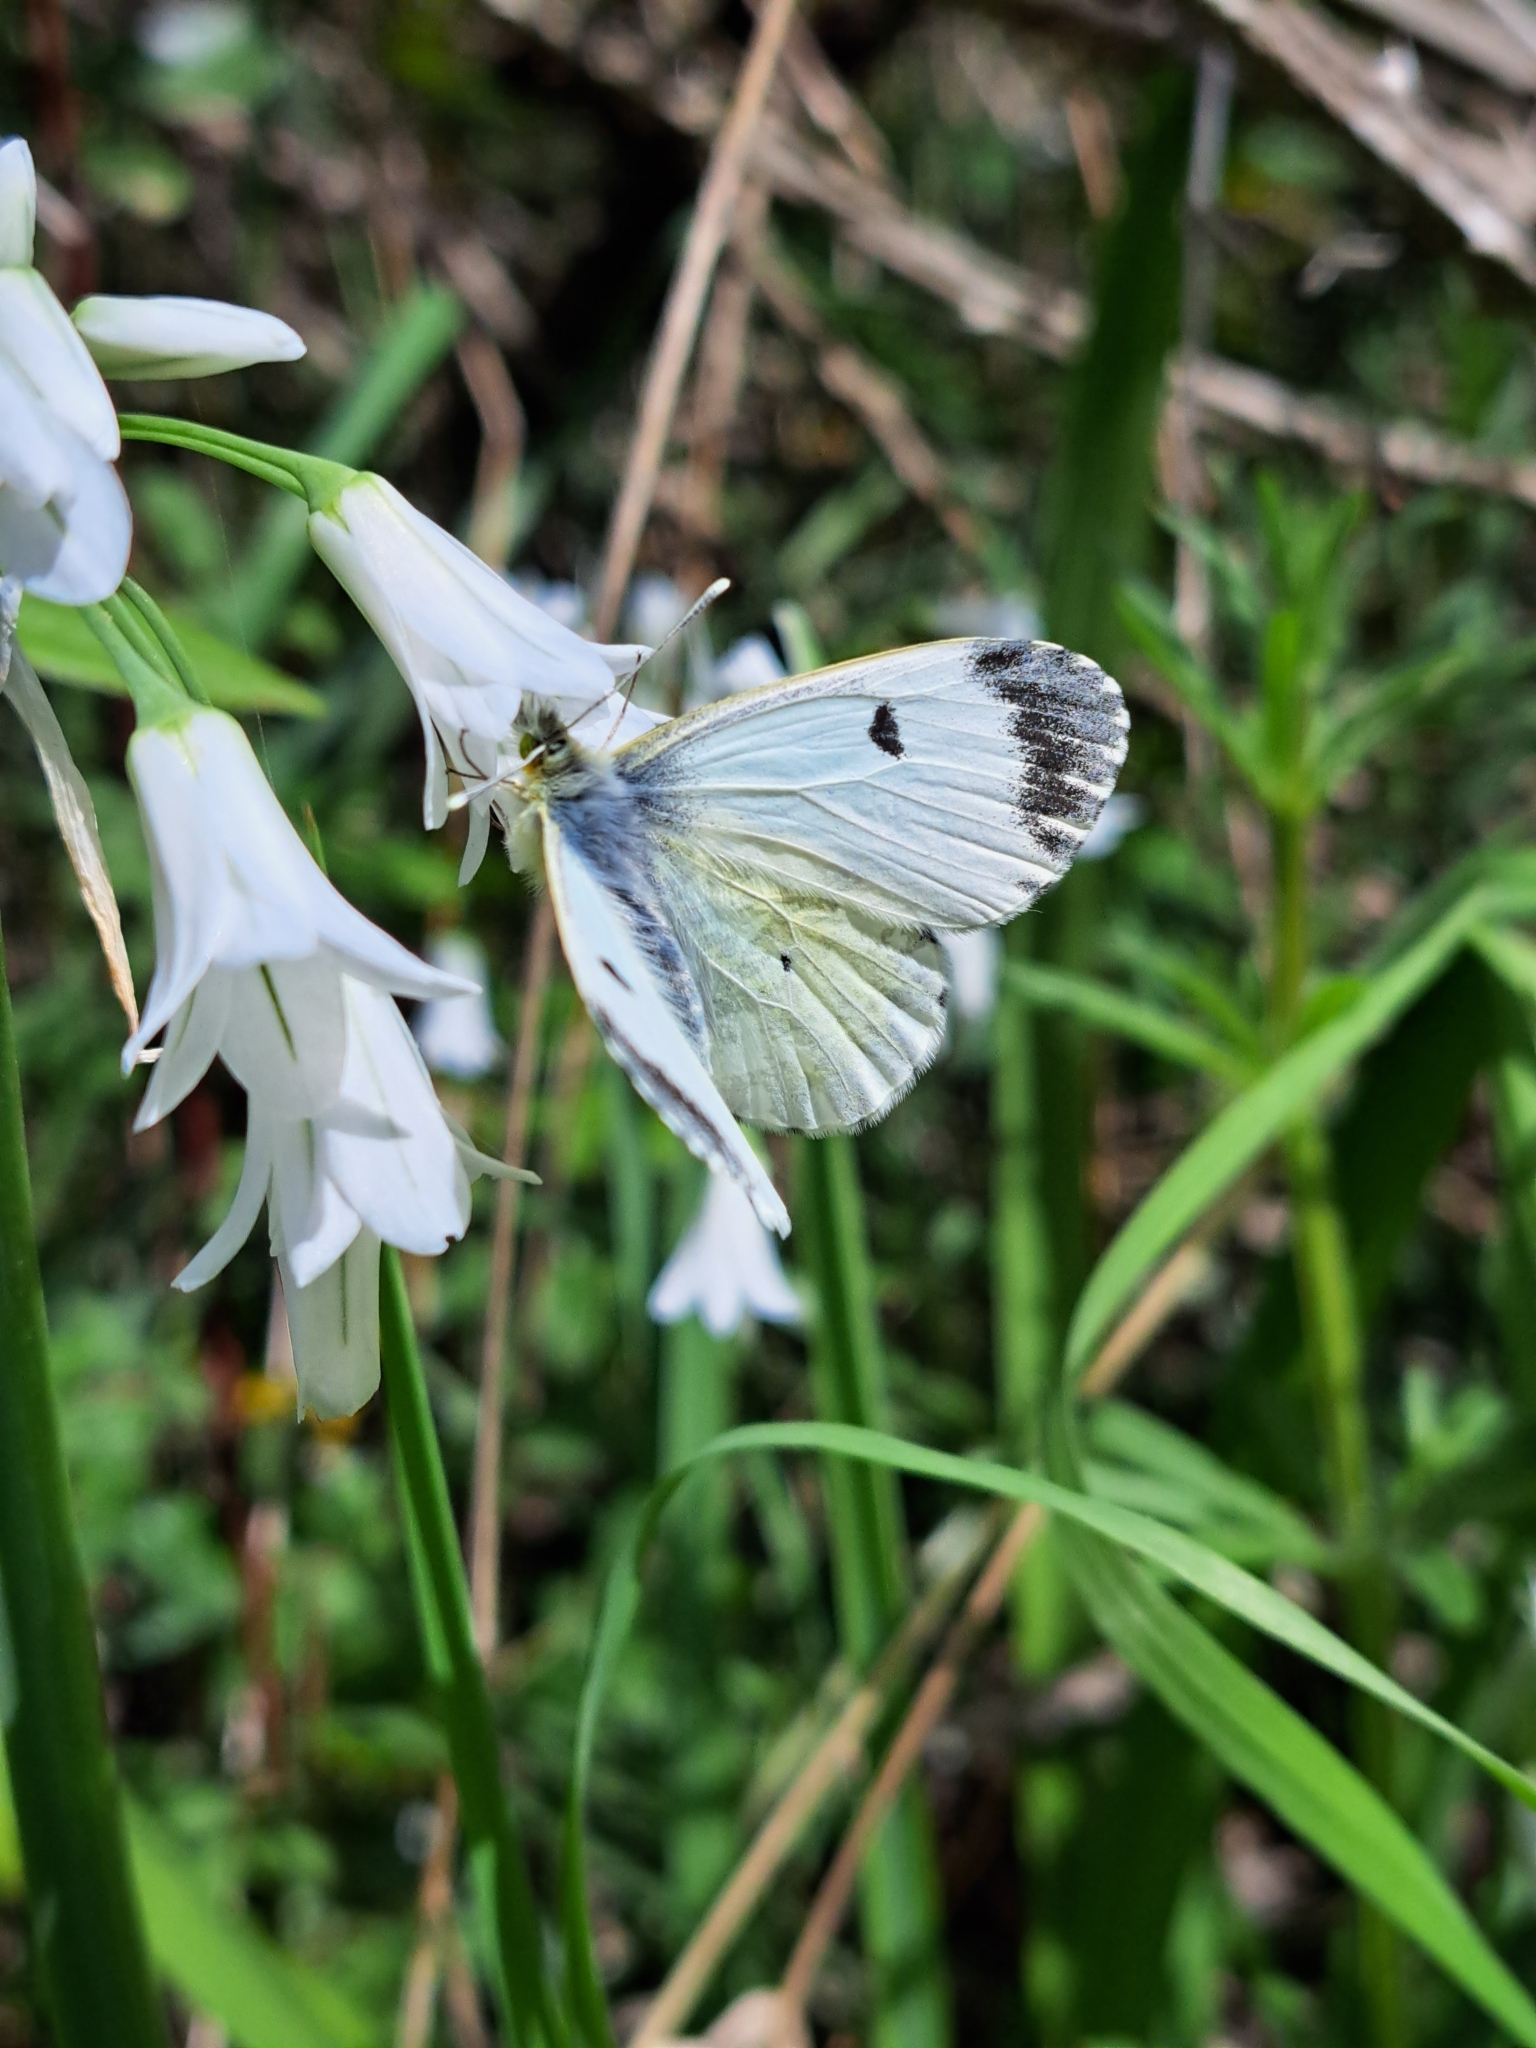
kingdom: Animalia
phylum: Arthropoda
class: Insecta
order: Lepidoptera
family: Pieridae
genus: Anthocharis
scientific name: Anthocharis cardamines
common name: Orange-tip
